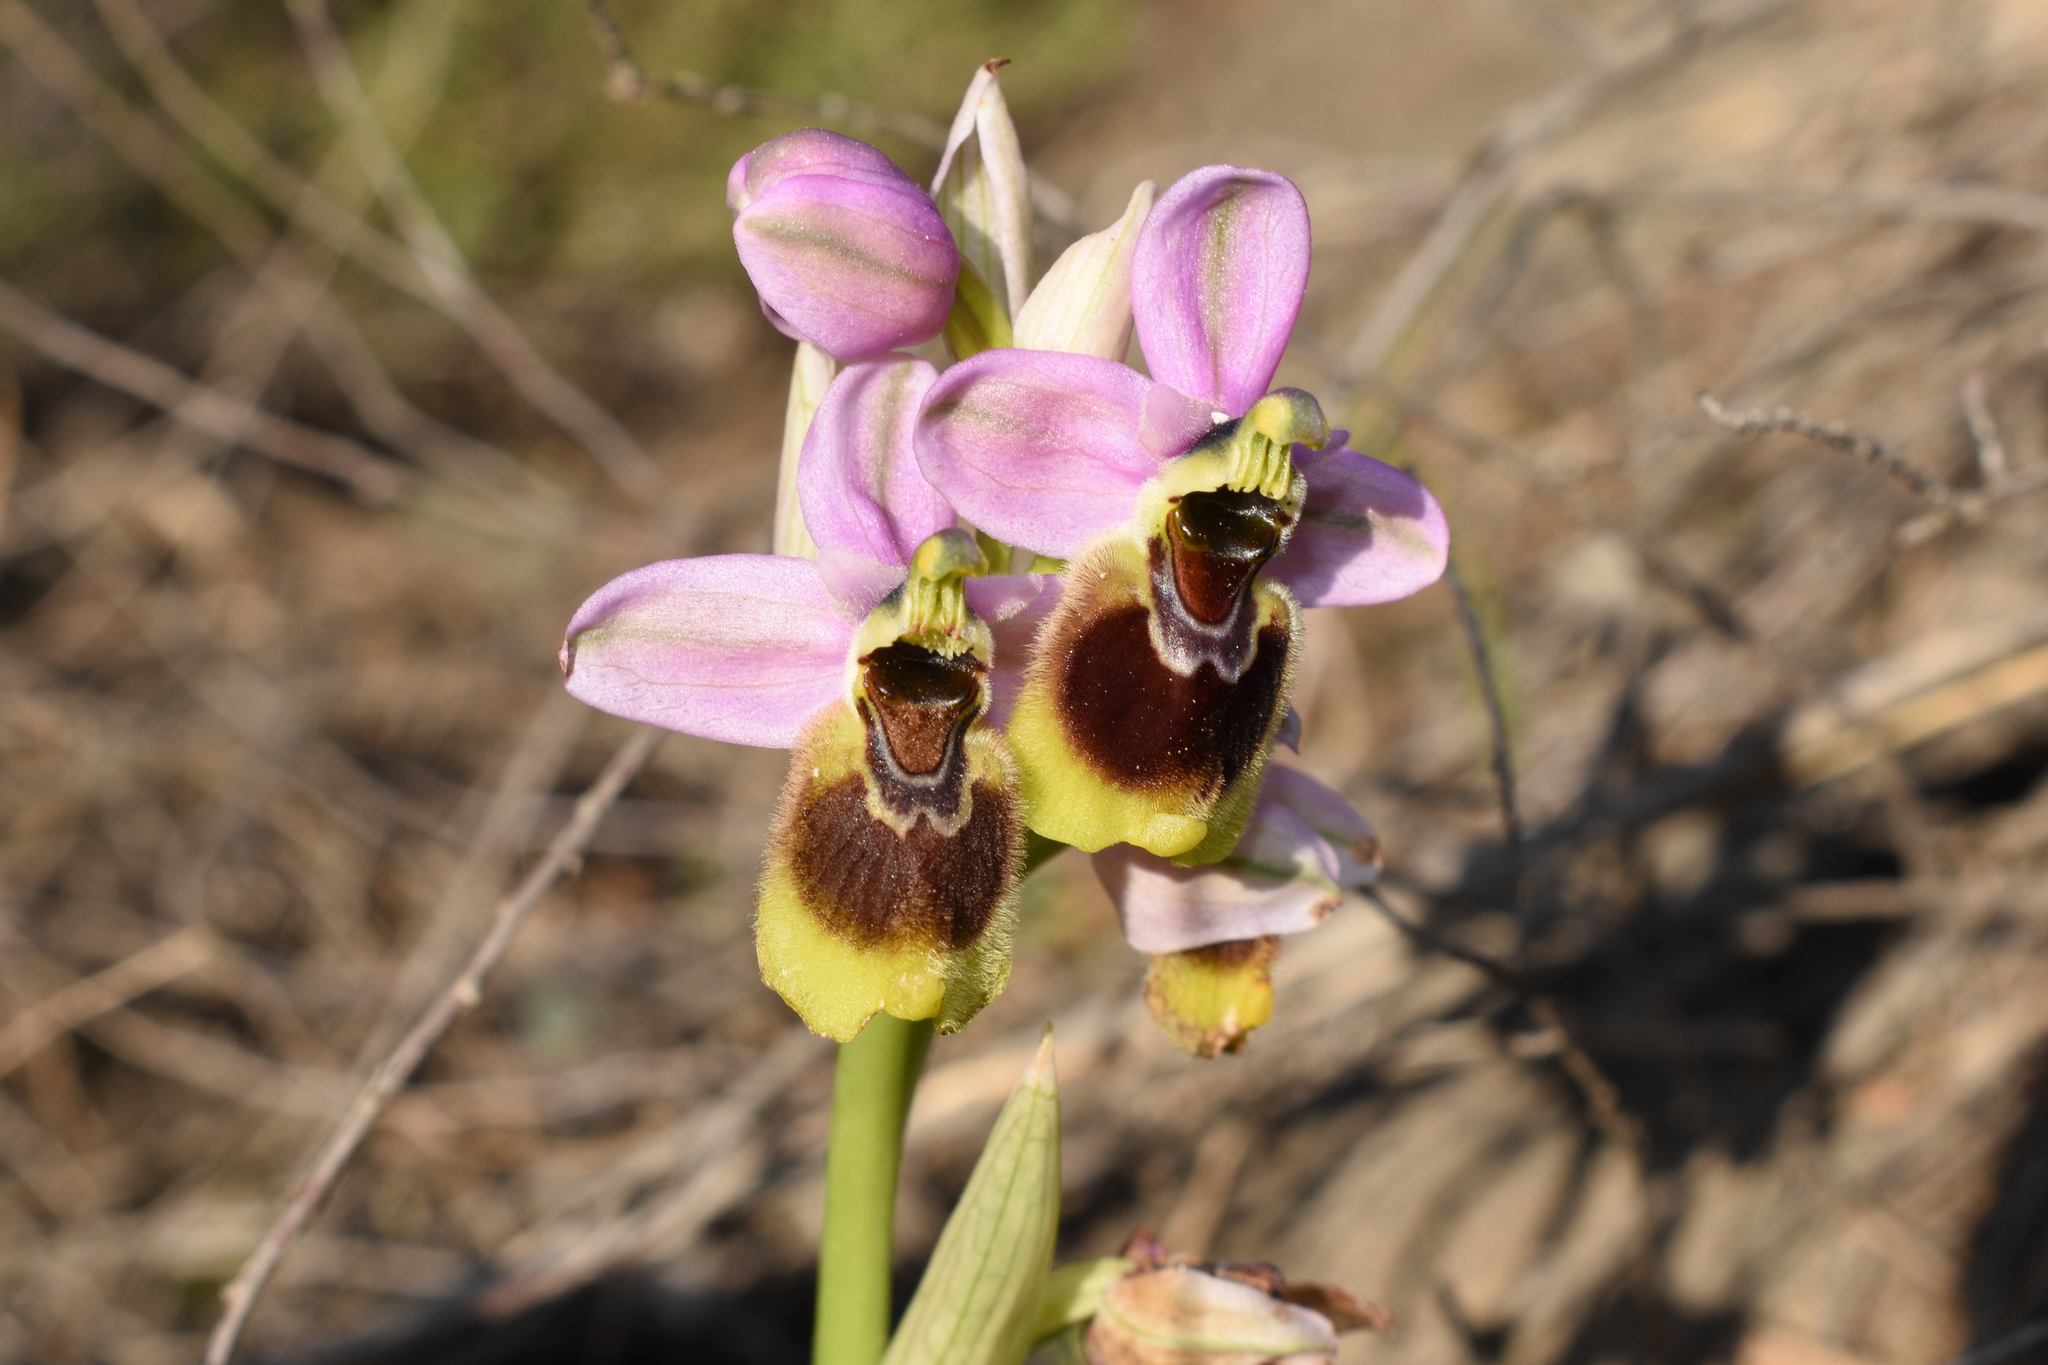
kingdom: Plantae
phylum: Tracheophyta
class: Liliopsida
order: Asparagales
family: Orchidaceae
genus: Ophrys
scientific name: Ophrys tenthredinifera
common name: Sawfly orchid
